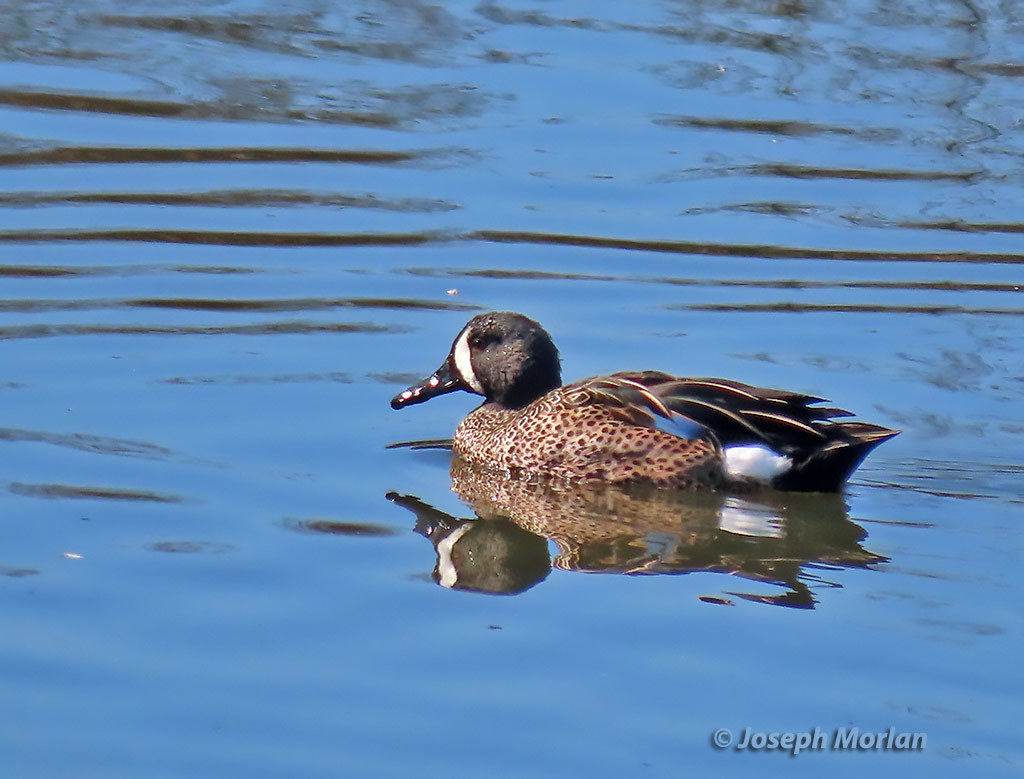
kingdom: Animalia
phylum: Chordata
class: Aves
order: Anseriformes
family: Anatidae
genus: Spatula
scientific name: Spatula discors
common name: Blue-winged teal
